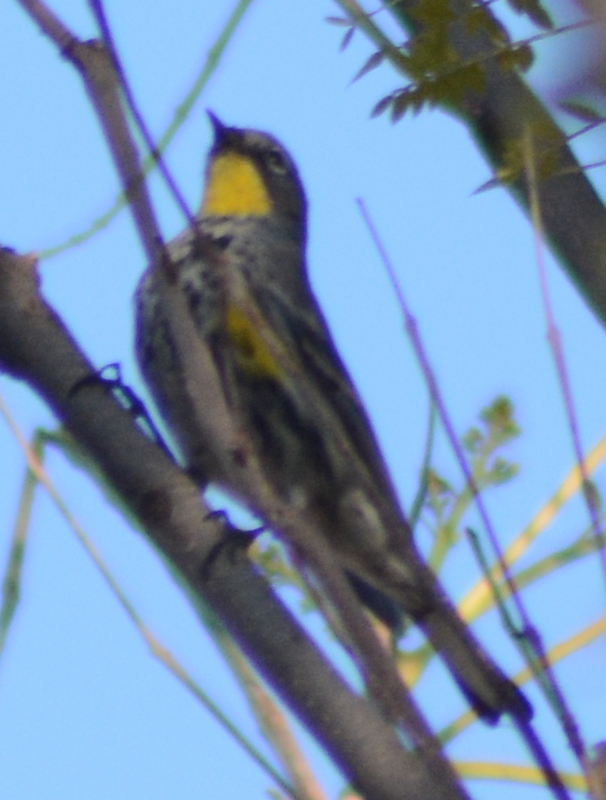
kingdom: Animalia
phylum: Chordata
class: Aves
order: Passeriformes
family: Parulidae
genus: Setophaga
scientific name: Setophaga auduboni
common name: Audubon's warbler
